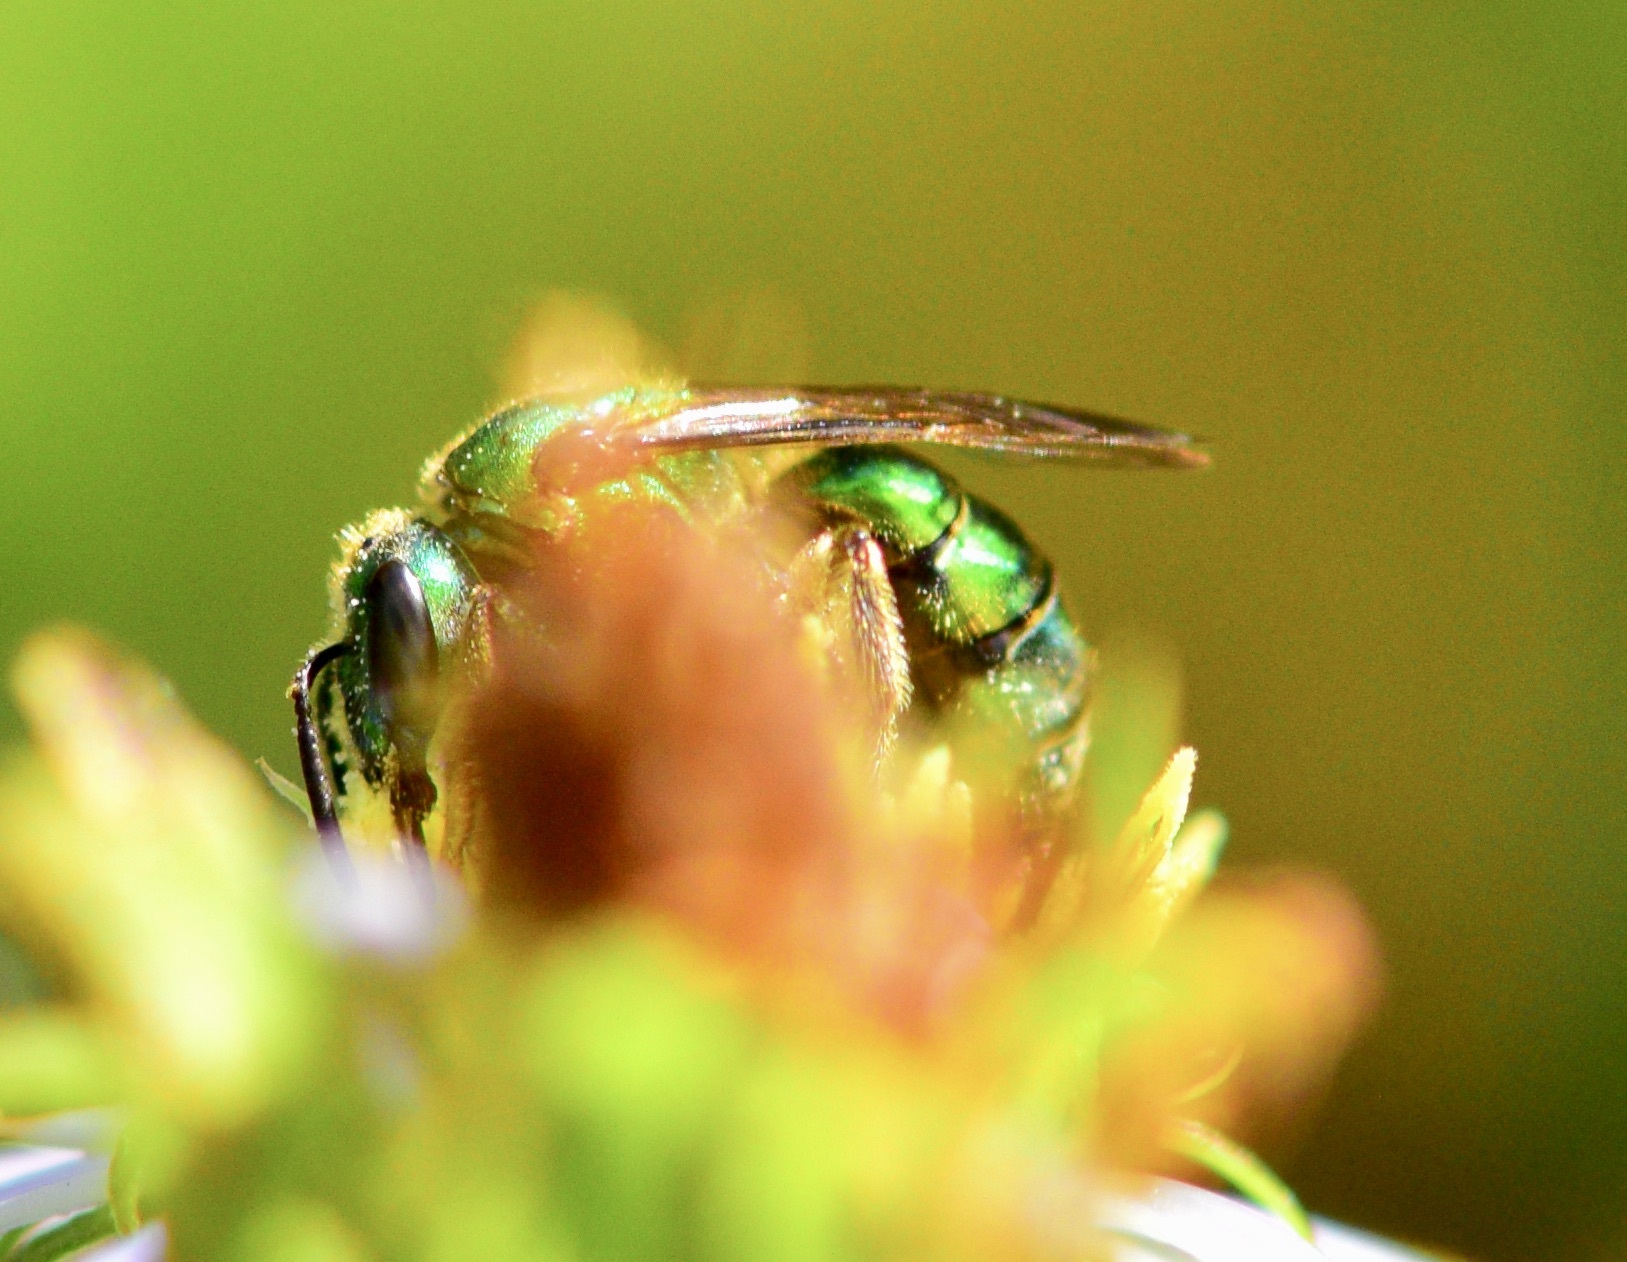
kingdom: Animalia
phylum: Arthropoda
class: Insecta
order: Hymenoptera
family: Halictidae
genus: Augochlora
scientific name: Augochlora pura
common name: Pure green sweat bee
